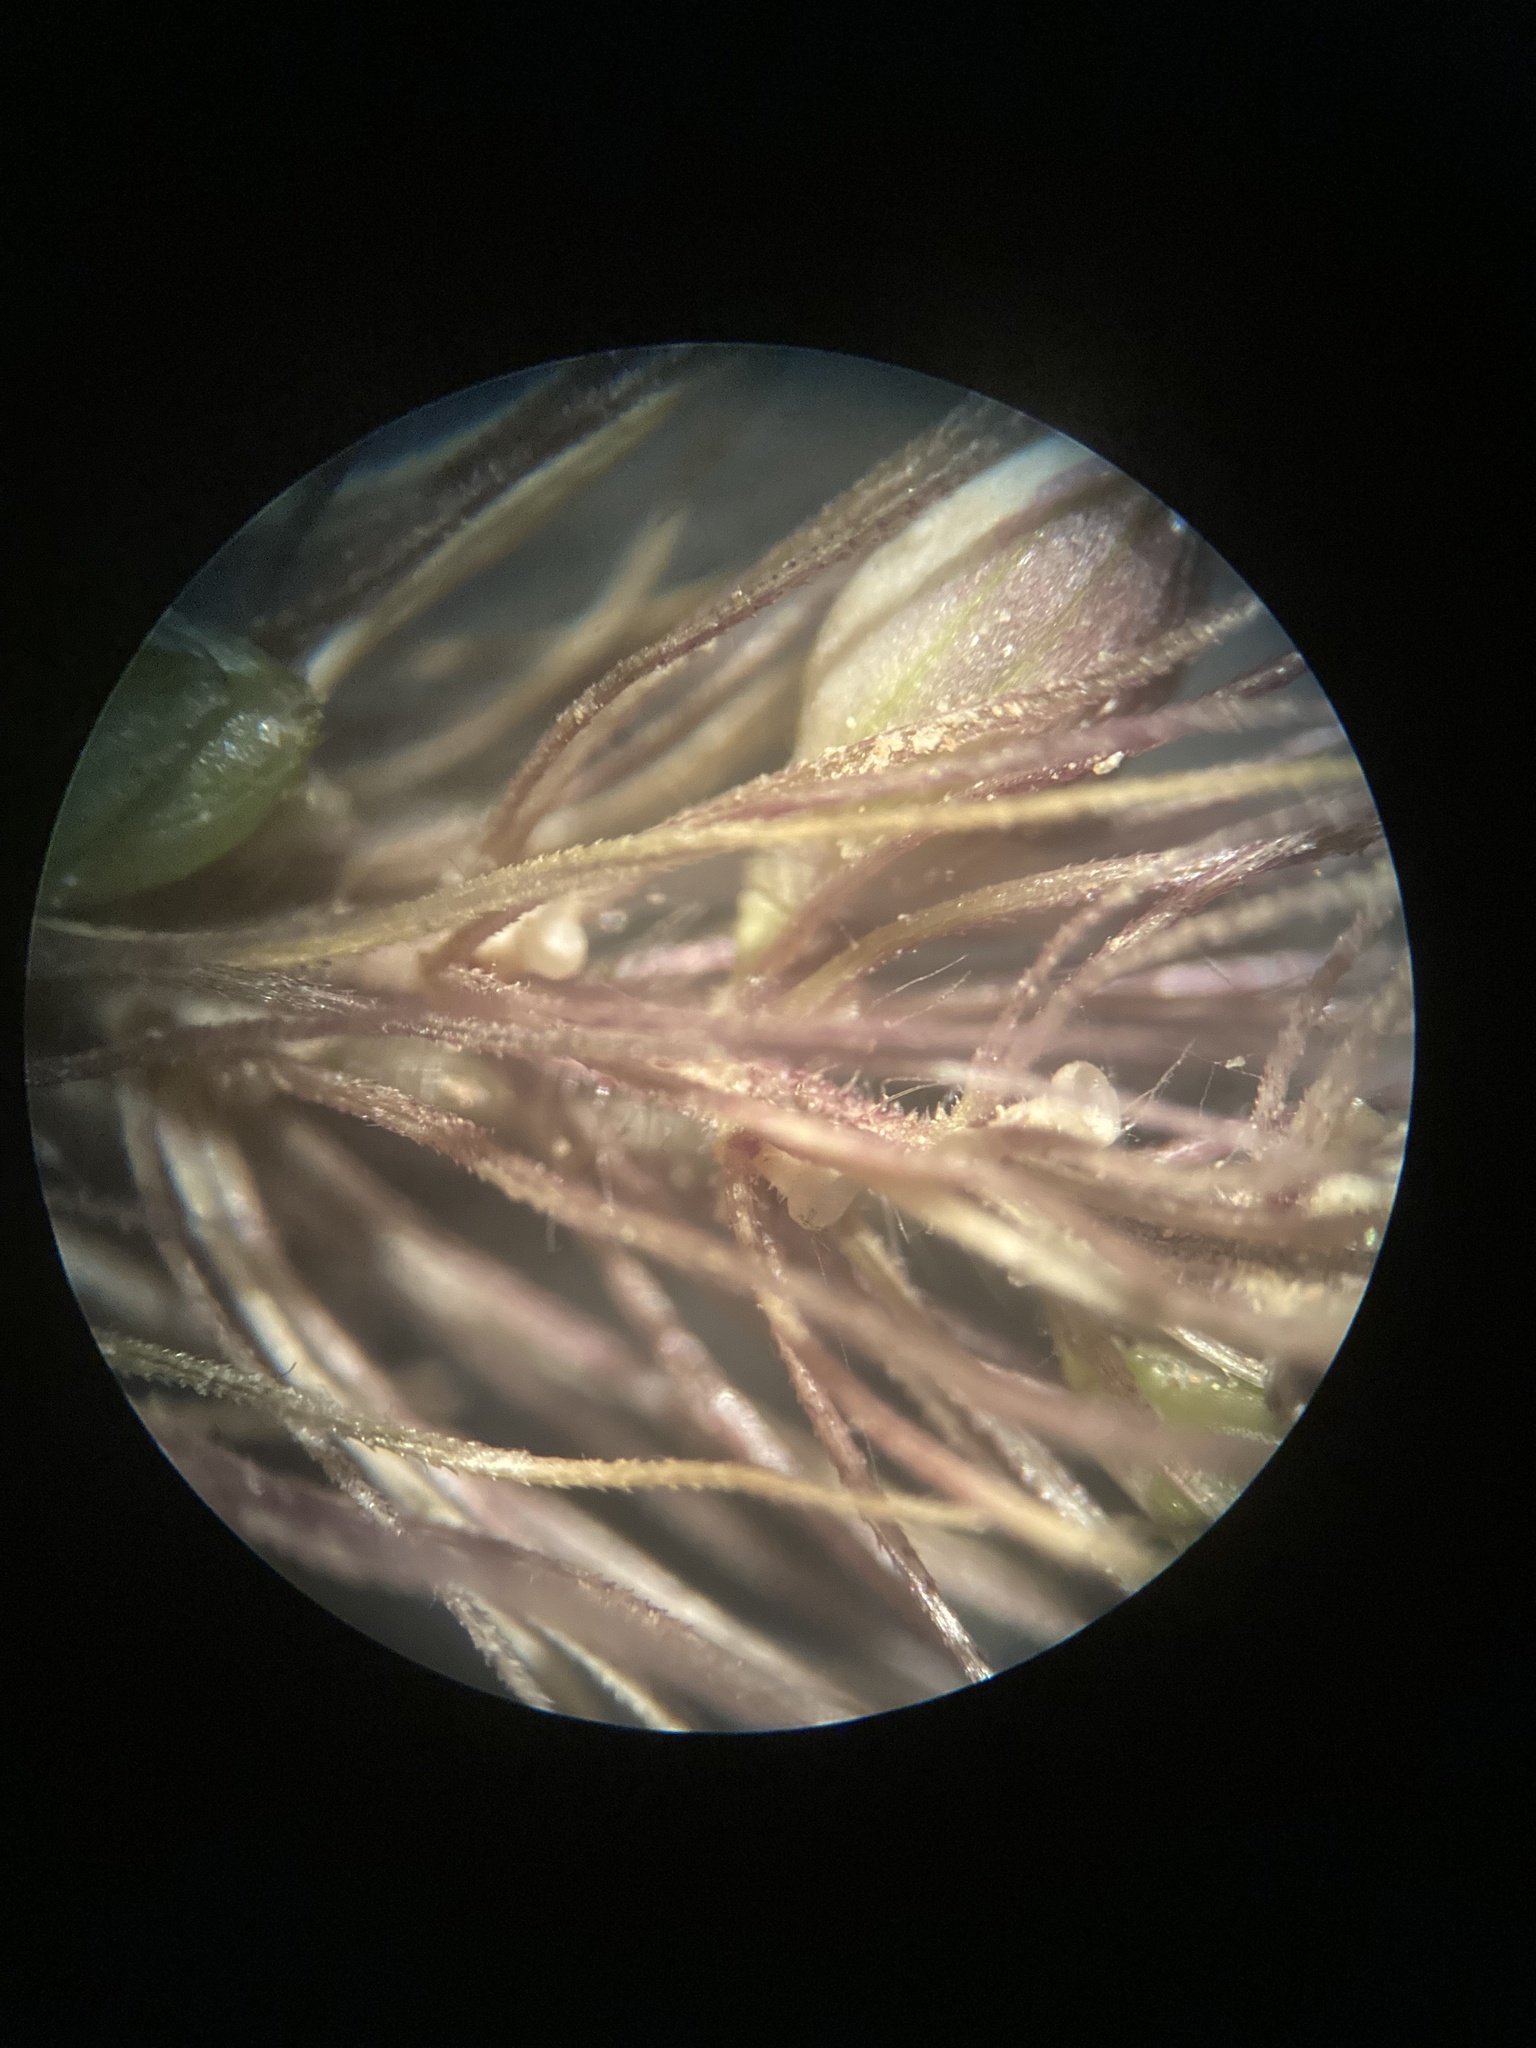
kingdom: Plantae
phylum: Tracheophyta
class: Liliopsida
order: Poales
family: Poaceae
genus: Setaria
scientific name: Setaria viridis
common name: Green bristlegrass
